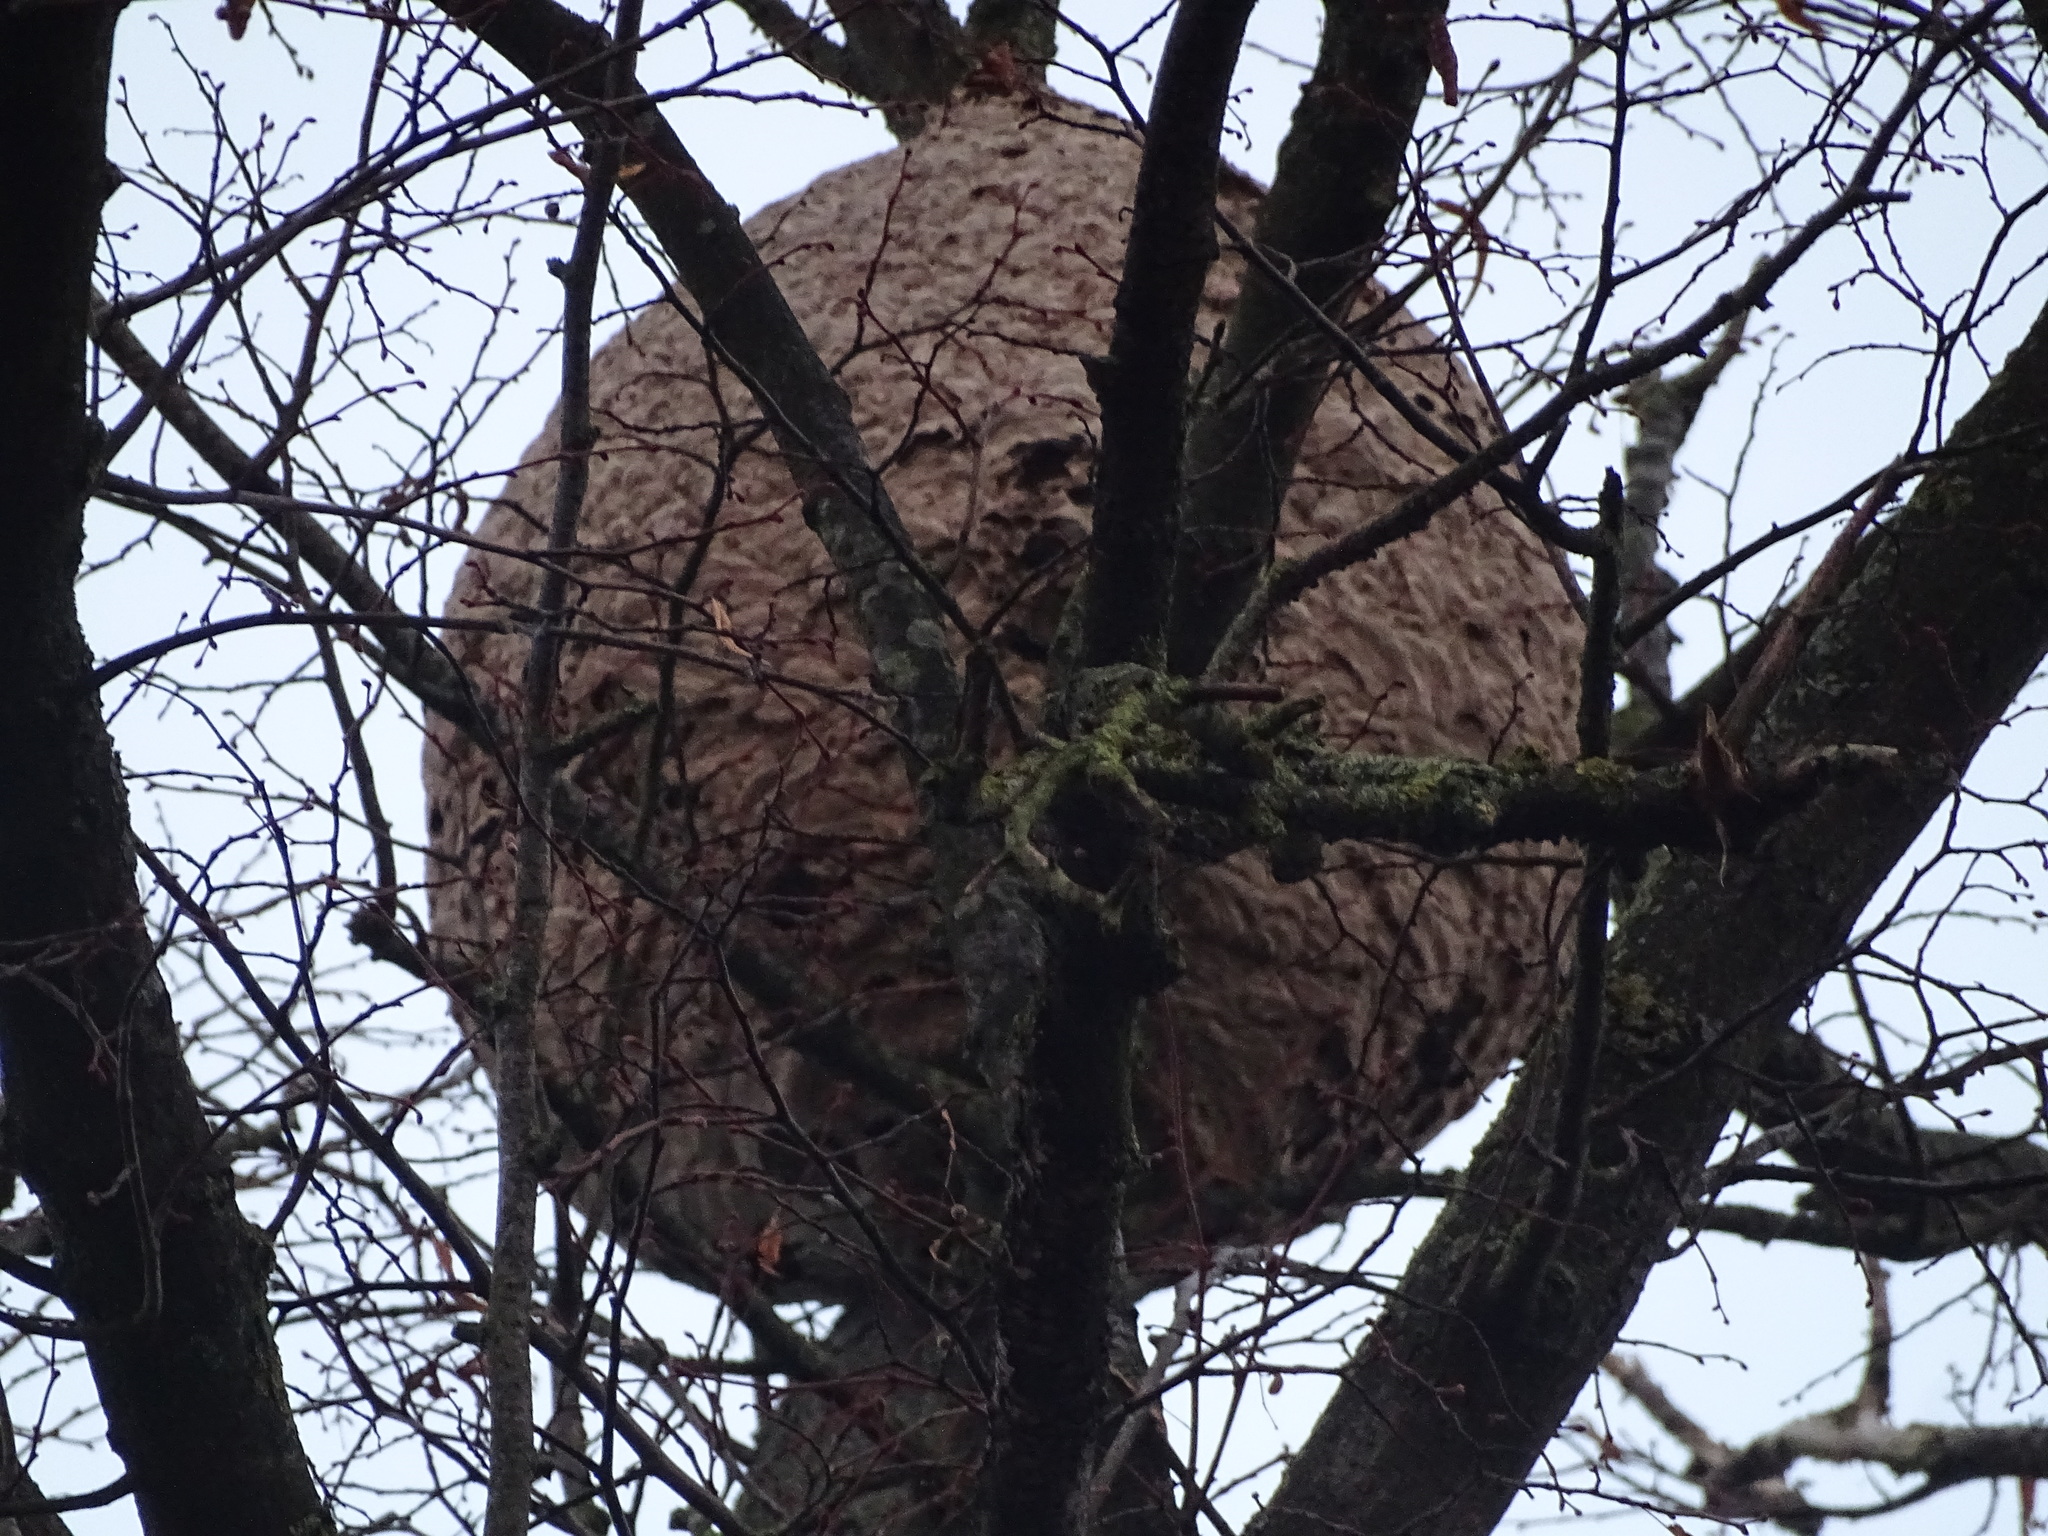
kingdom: Animalia
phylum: Arthropoda
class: Insecta
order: Hymenoptera
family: Vespidae
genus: Vespa
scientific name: Vespa velutina
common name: Asian hornet
